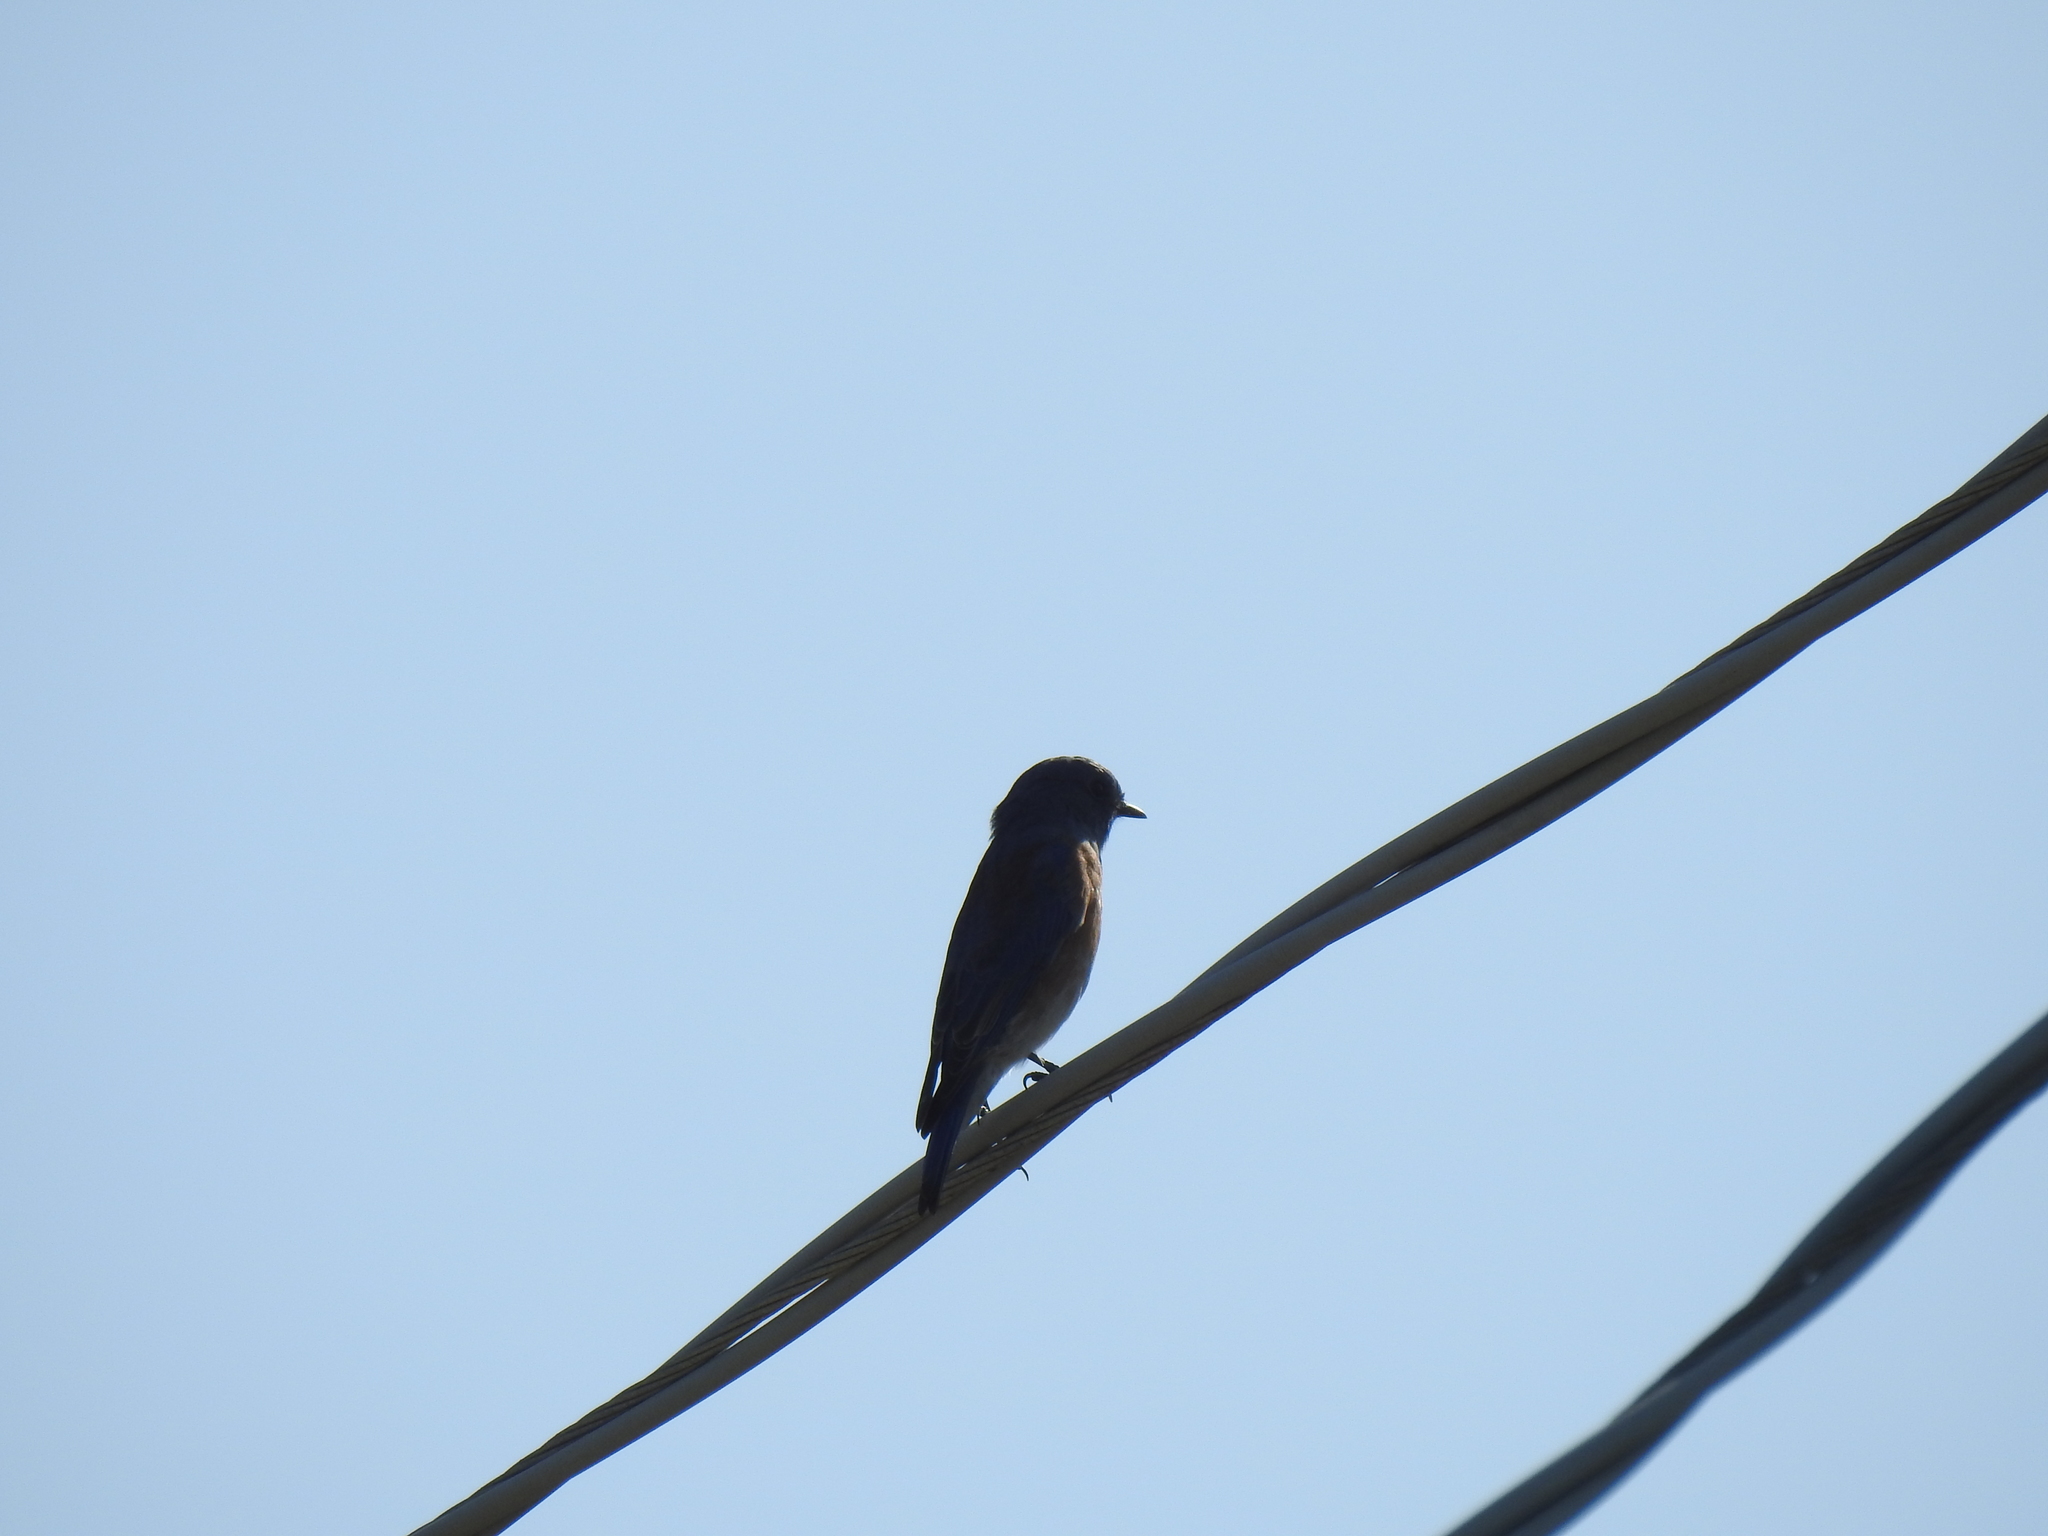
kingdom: Animalia
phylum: Chordata
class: Aves
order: Passeriformes
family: Turdidae
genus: Sialia
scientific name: Sialia mexicana
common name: Western bluebird
